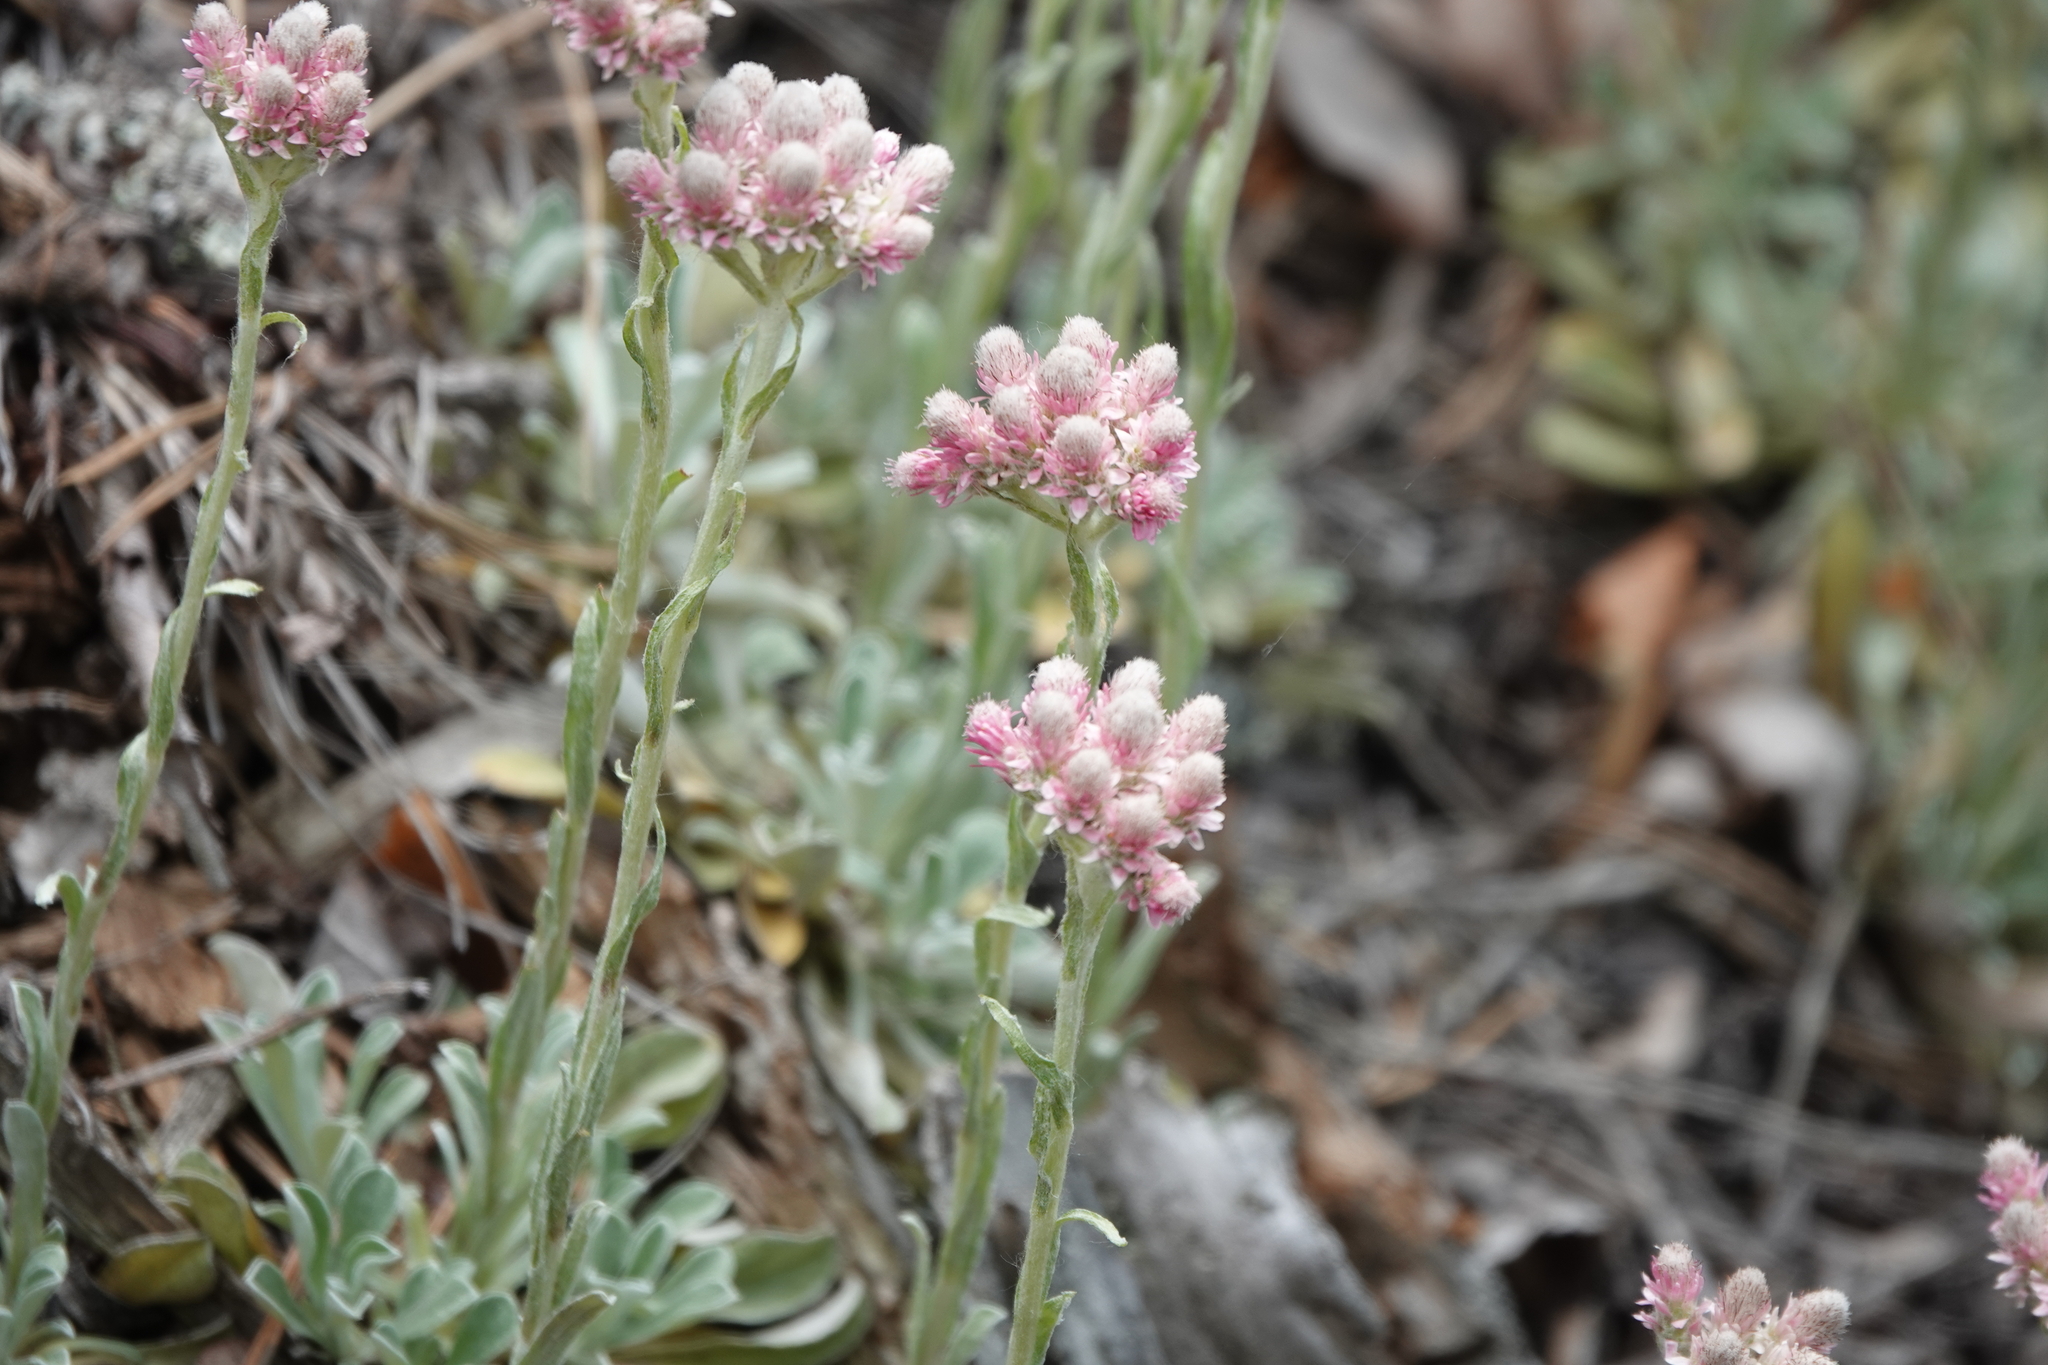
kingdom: Plantae
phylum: Tracheophyta
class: Magnoliopsida
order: Asterales
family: Asteraceae
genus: Antennaria
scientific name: Antennaria dioica
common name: Mountain everlasting
